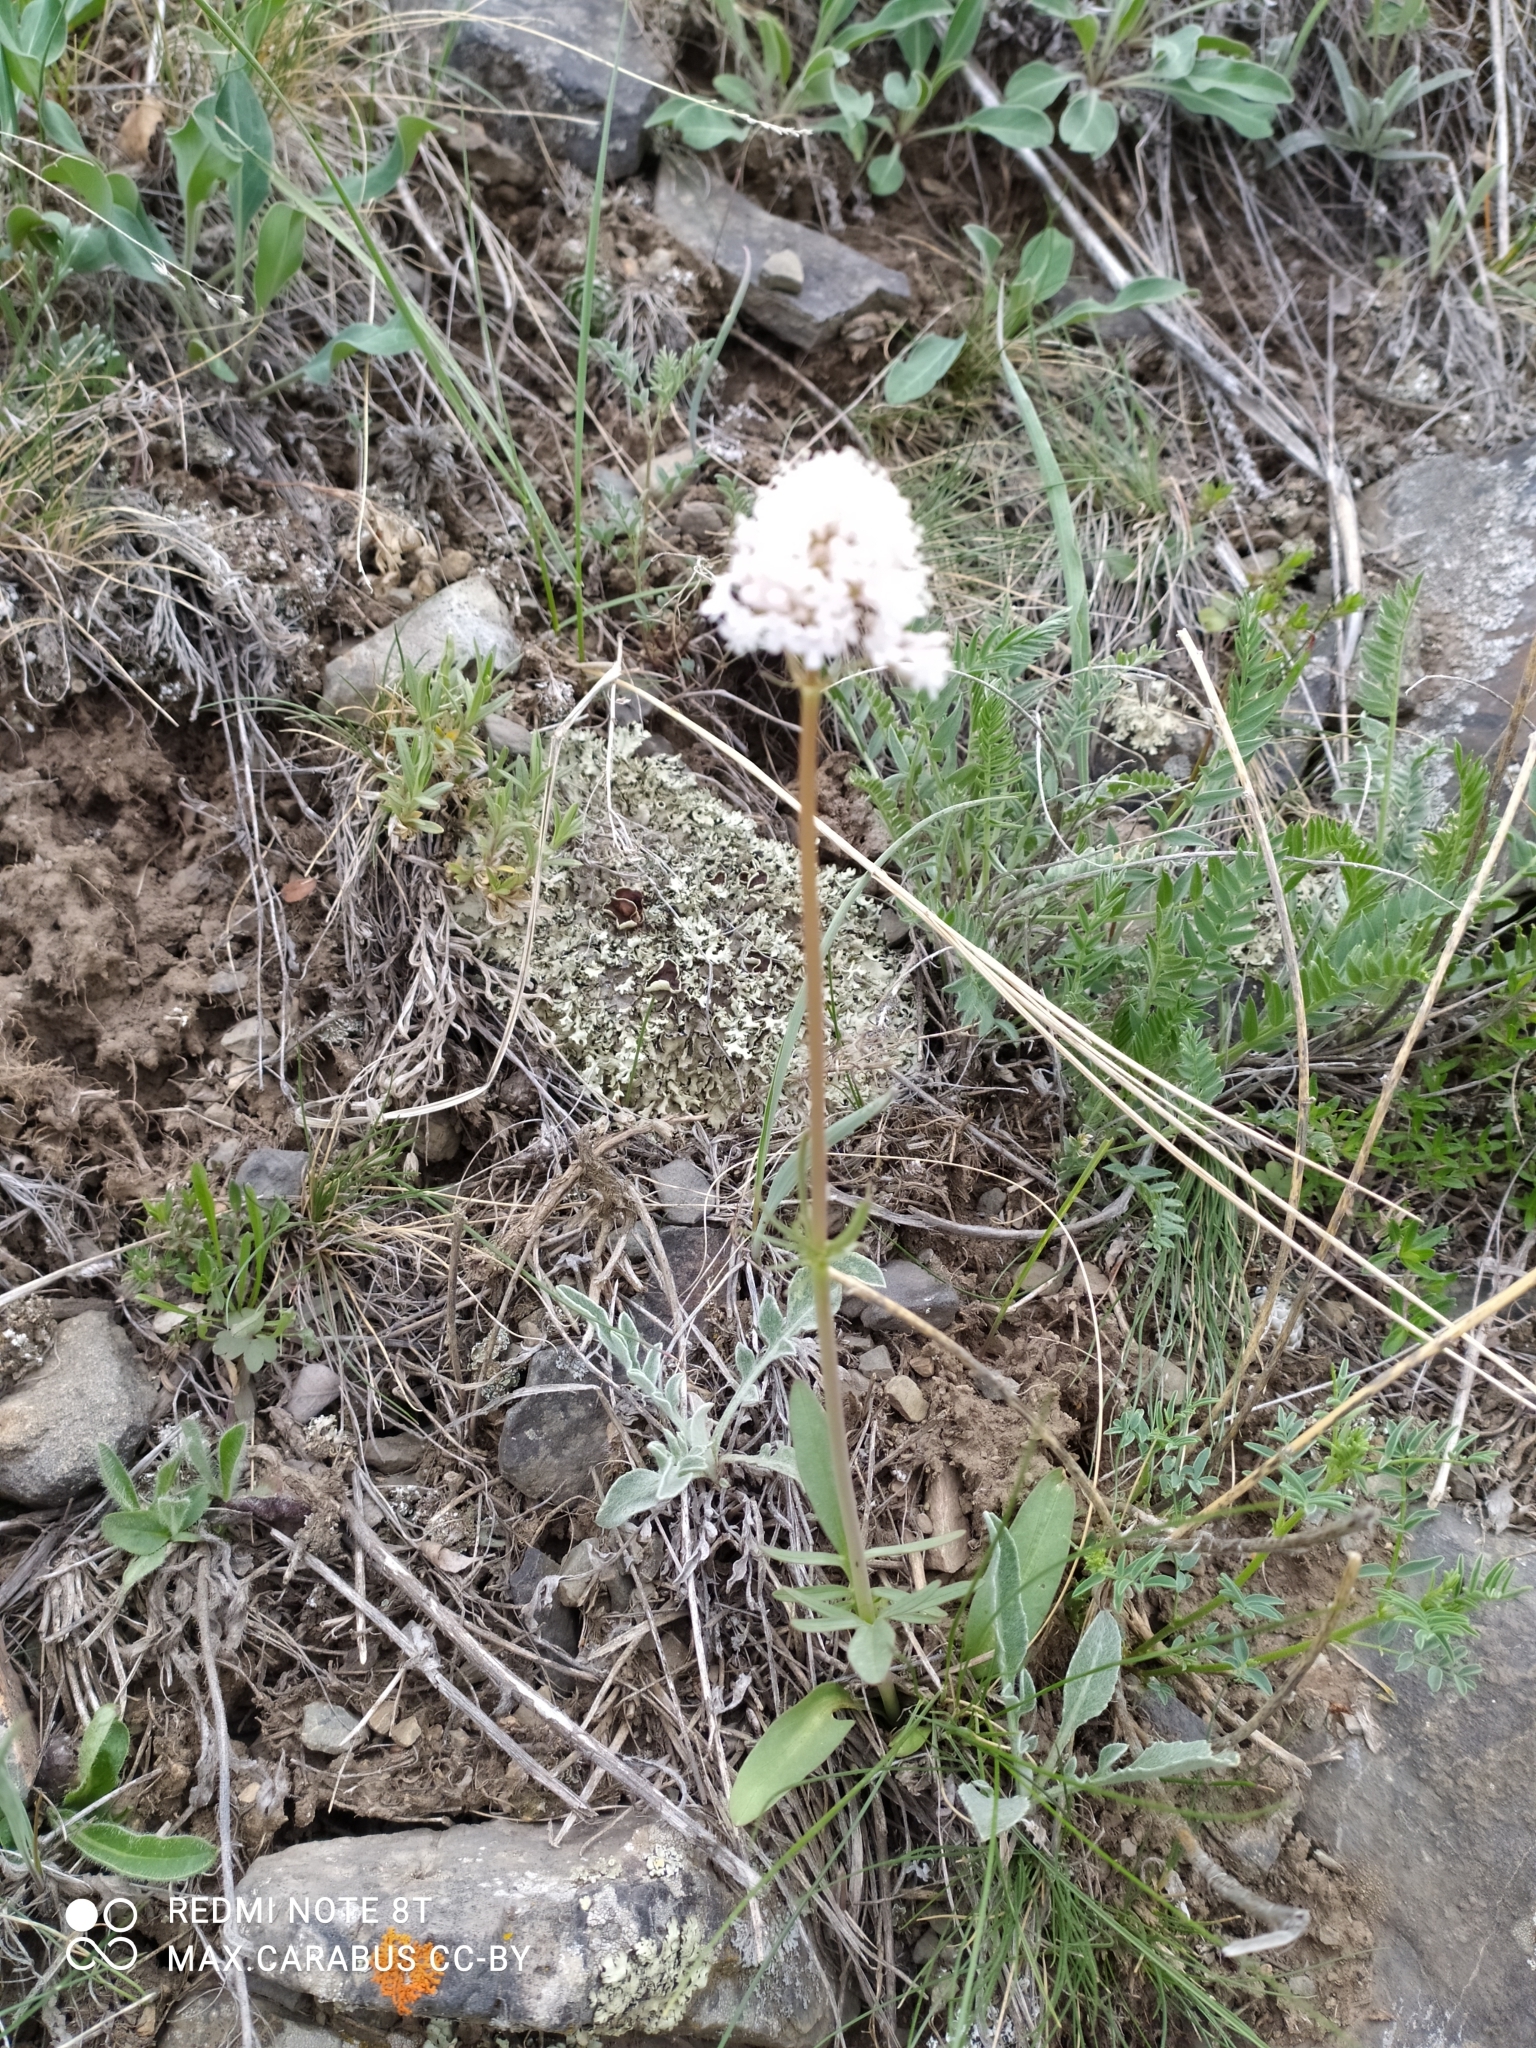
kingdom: Plantae
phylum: Tracheophyta
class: Magnoliopsida
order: Dipsacales
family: Caprifoliaceae
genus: Valeriana
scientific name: Valeriana tuberosa
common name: Tuberous valerian
